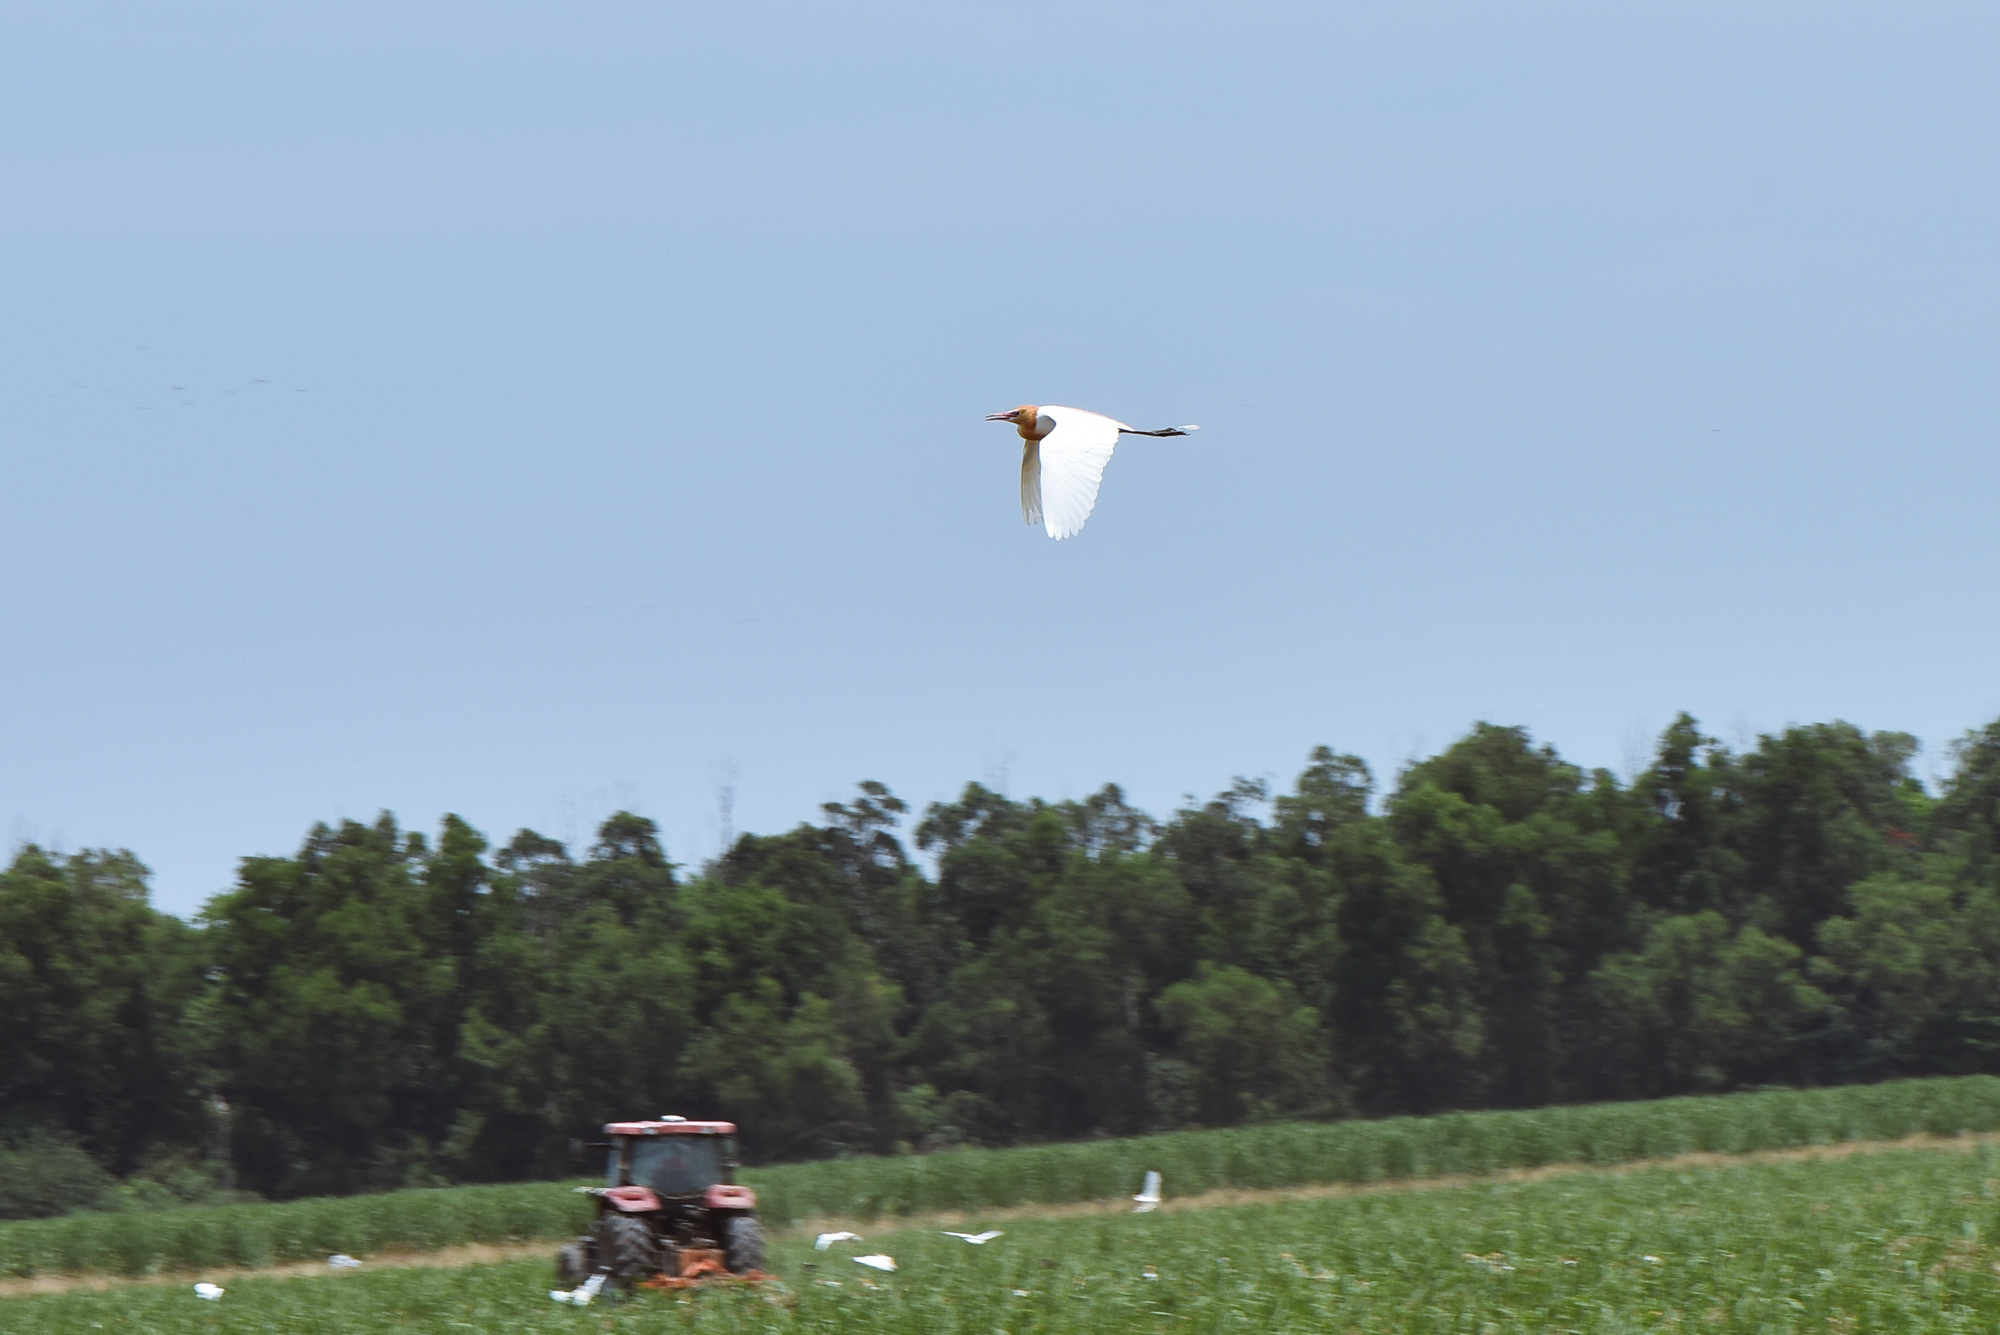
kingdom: Animalia
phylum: Chordata
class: Aves
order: Pelecaniformes
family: Ardeidae
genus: Bubulcus
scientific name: Bubulcus coromandus
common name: Eastern cattle egret
